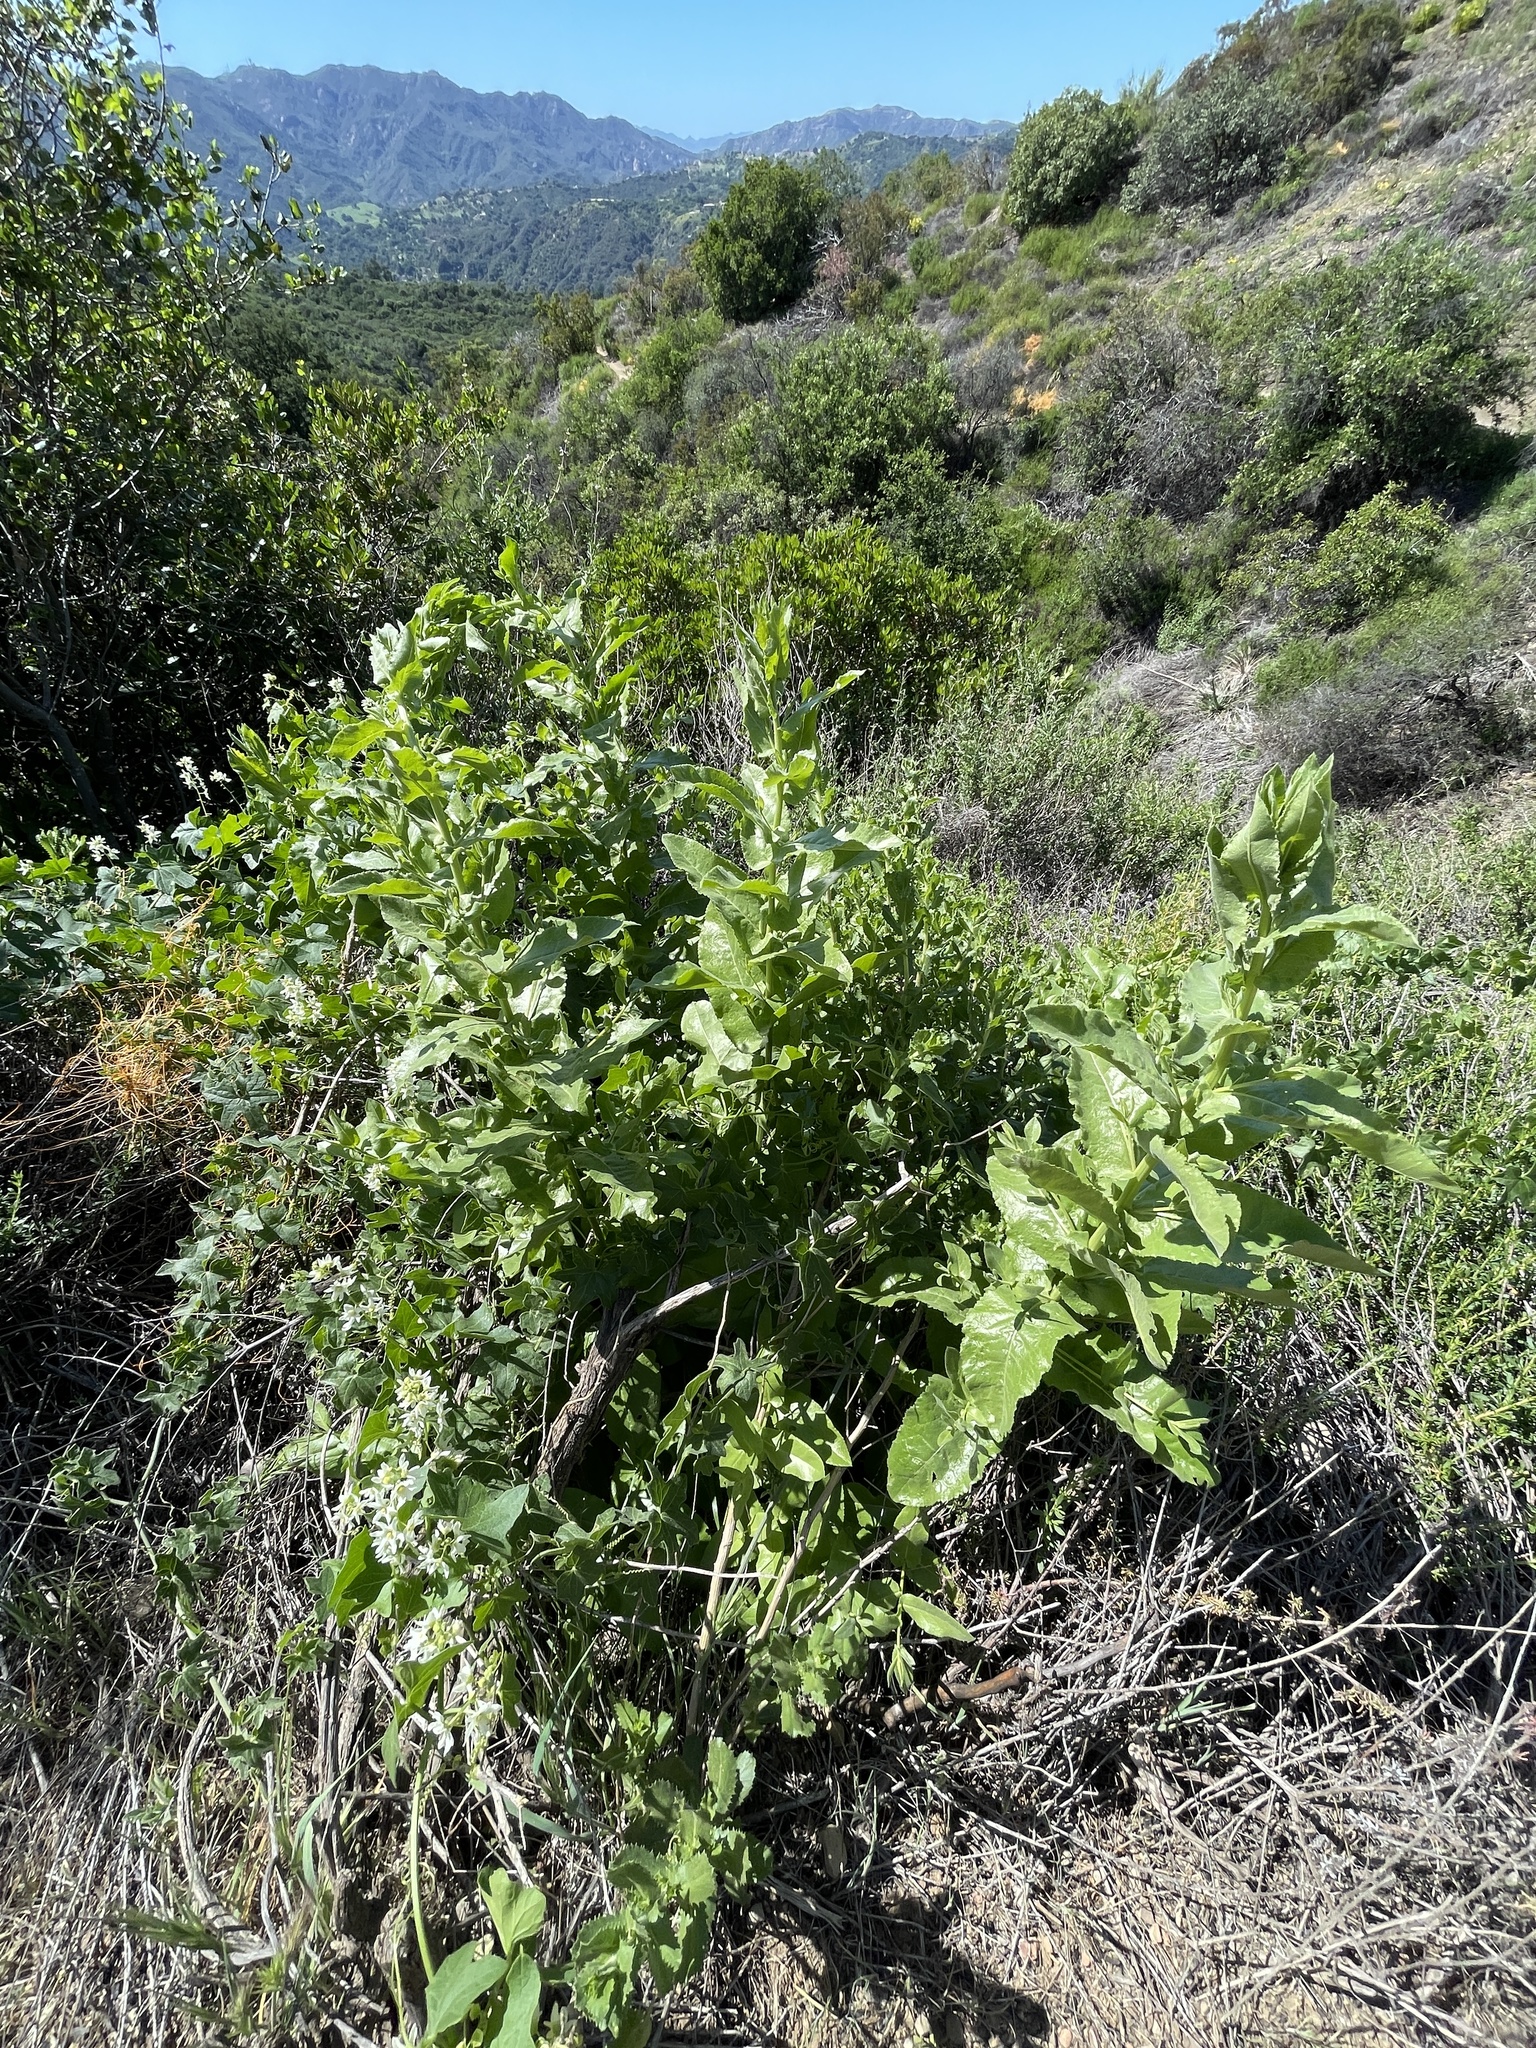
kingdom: Plantae
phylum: Tracheophyta
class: Magnoliopsida
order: Asterales
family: Asteraceae
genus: Acourtia
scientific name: Acourtia microcephala
